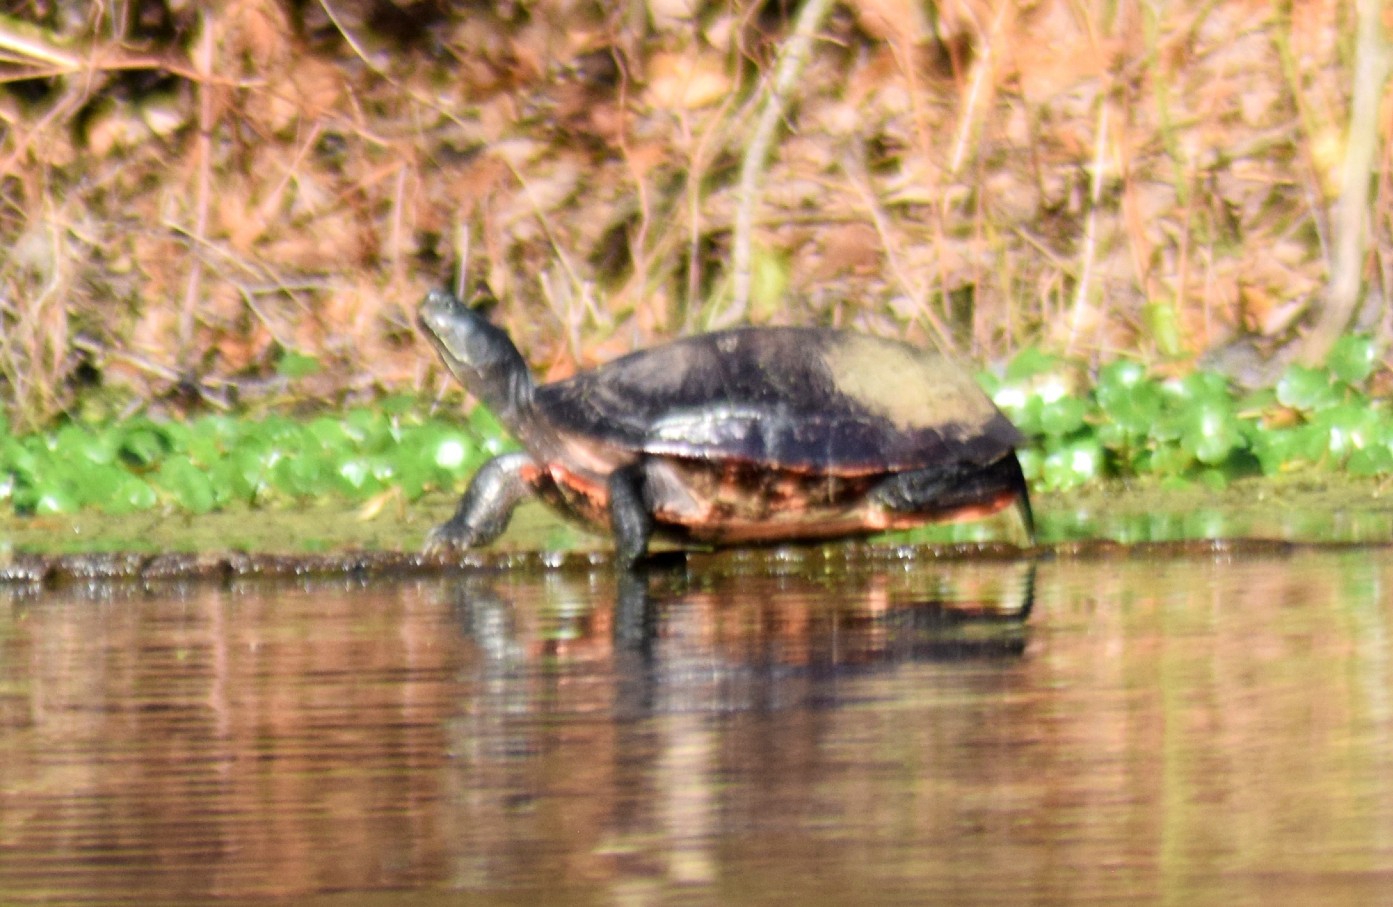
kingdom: Animalia
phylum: Chordata
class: Testudines
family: Emydidae
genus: Pseudemys
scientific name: Pseudemys rubriventris
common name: American red-bellied turtle
